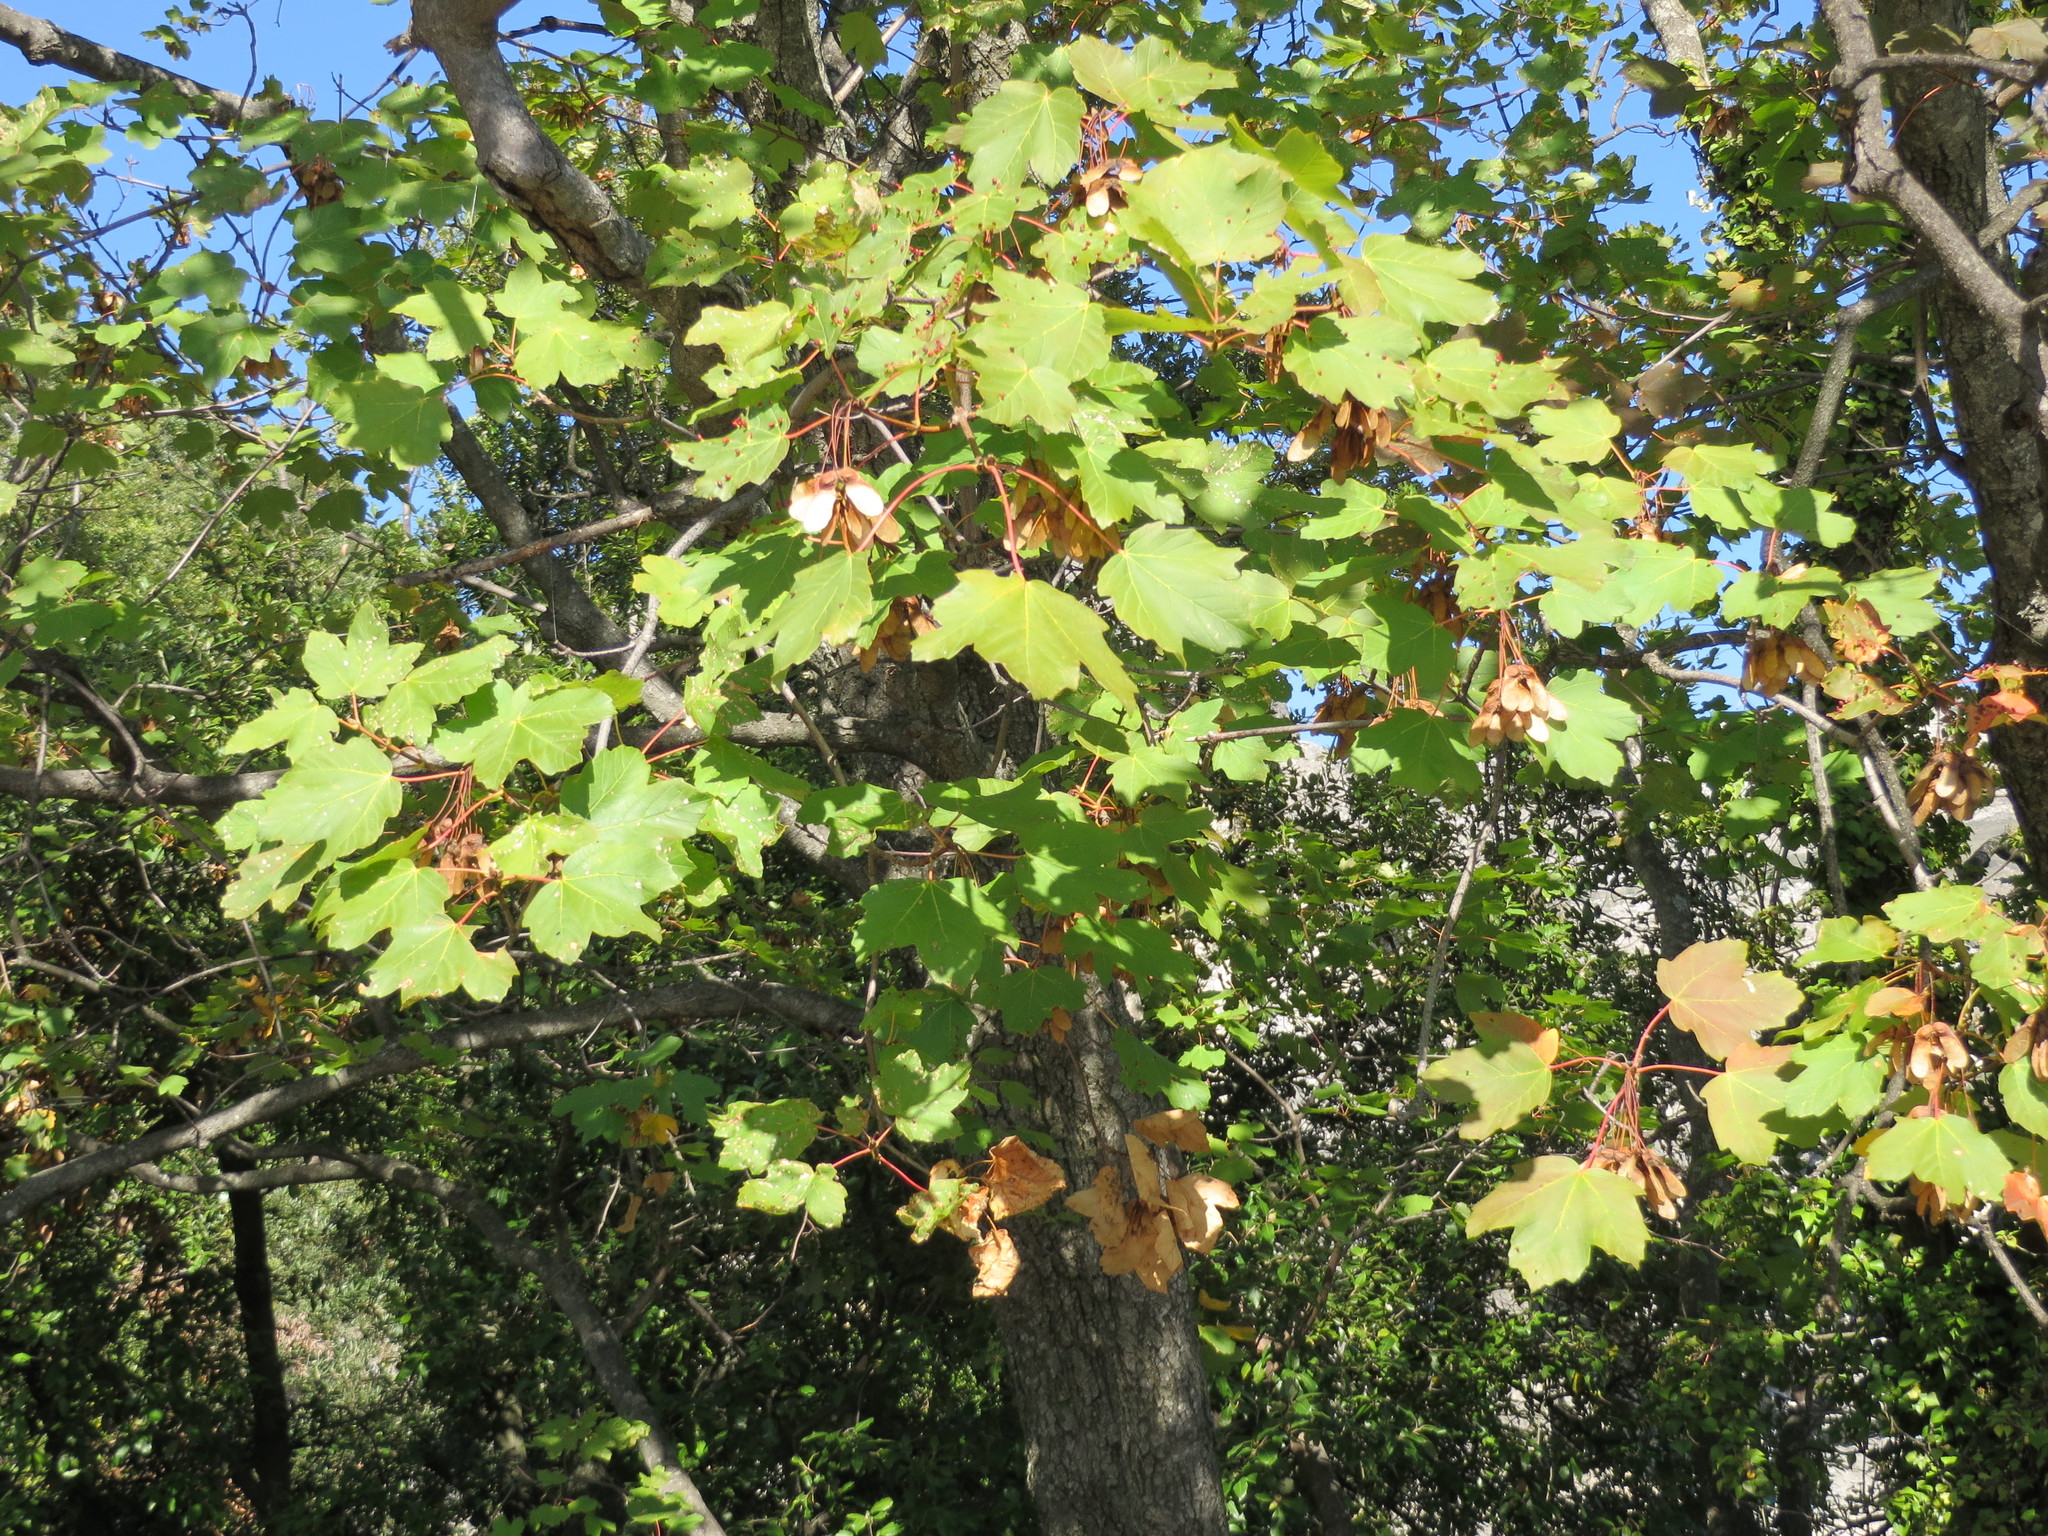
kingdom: Plantae
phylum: Tracheophyta
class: Magnoliopsida
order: Sapindales
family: Sapindaceae
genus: Acer
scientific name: Acer opalus
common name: Italian maple
